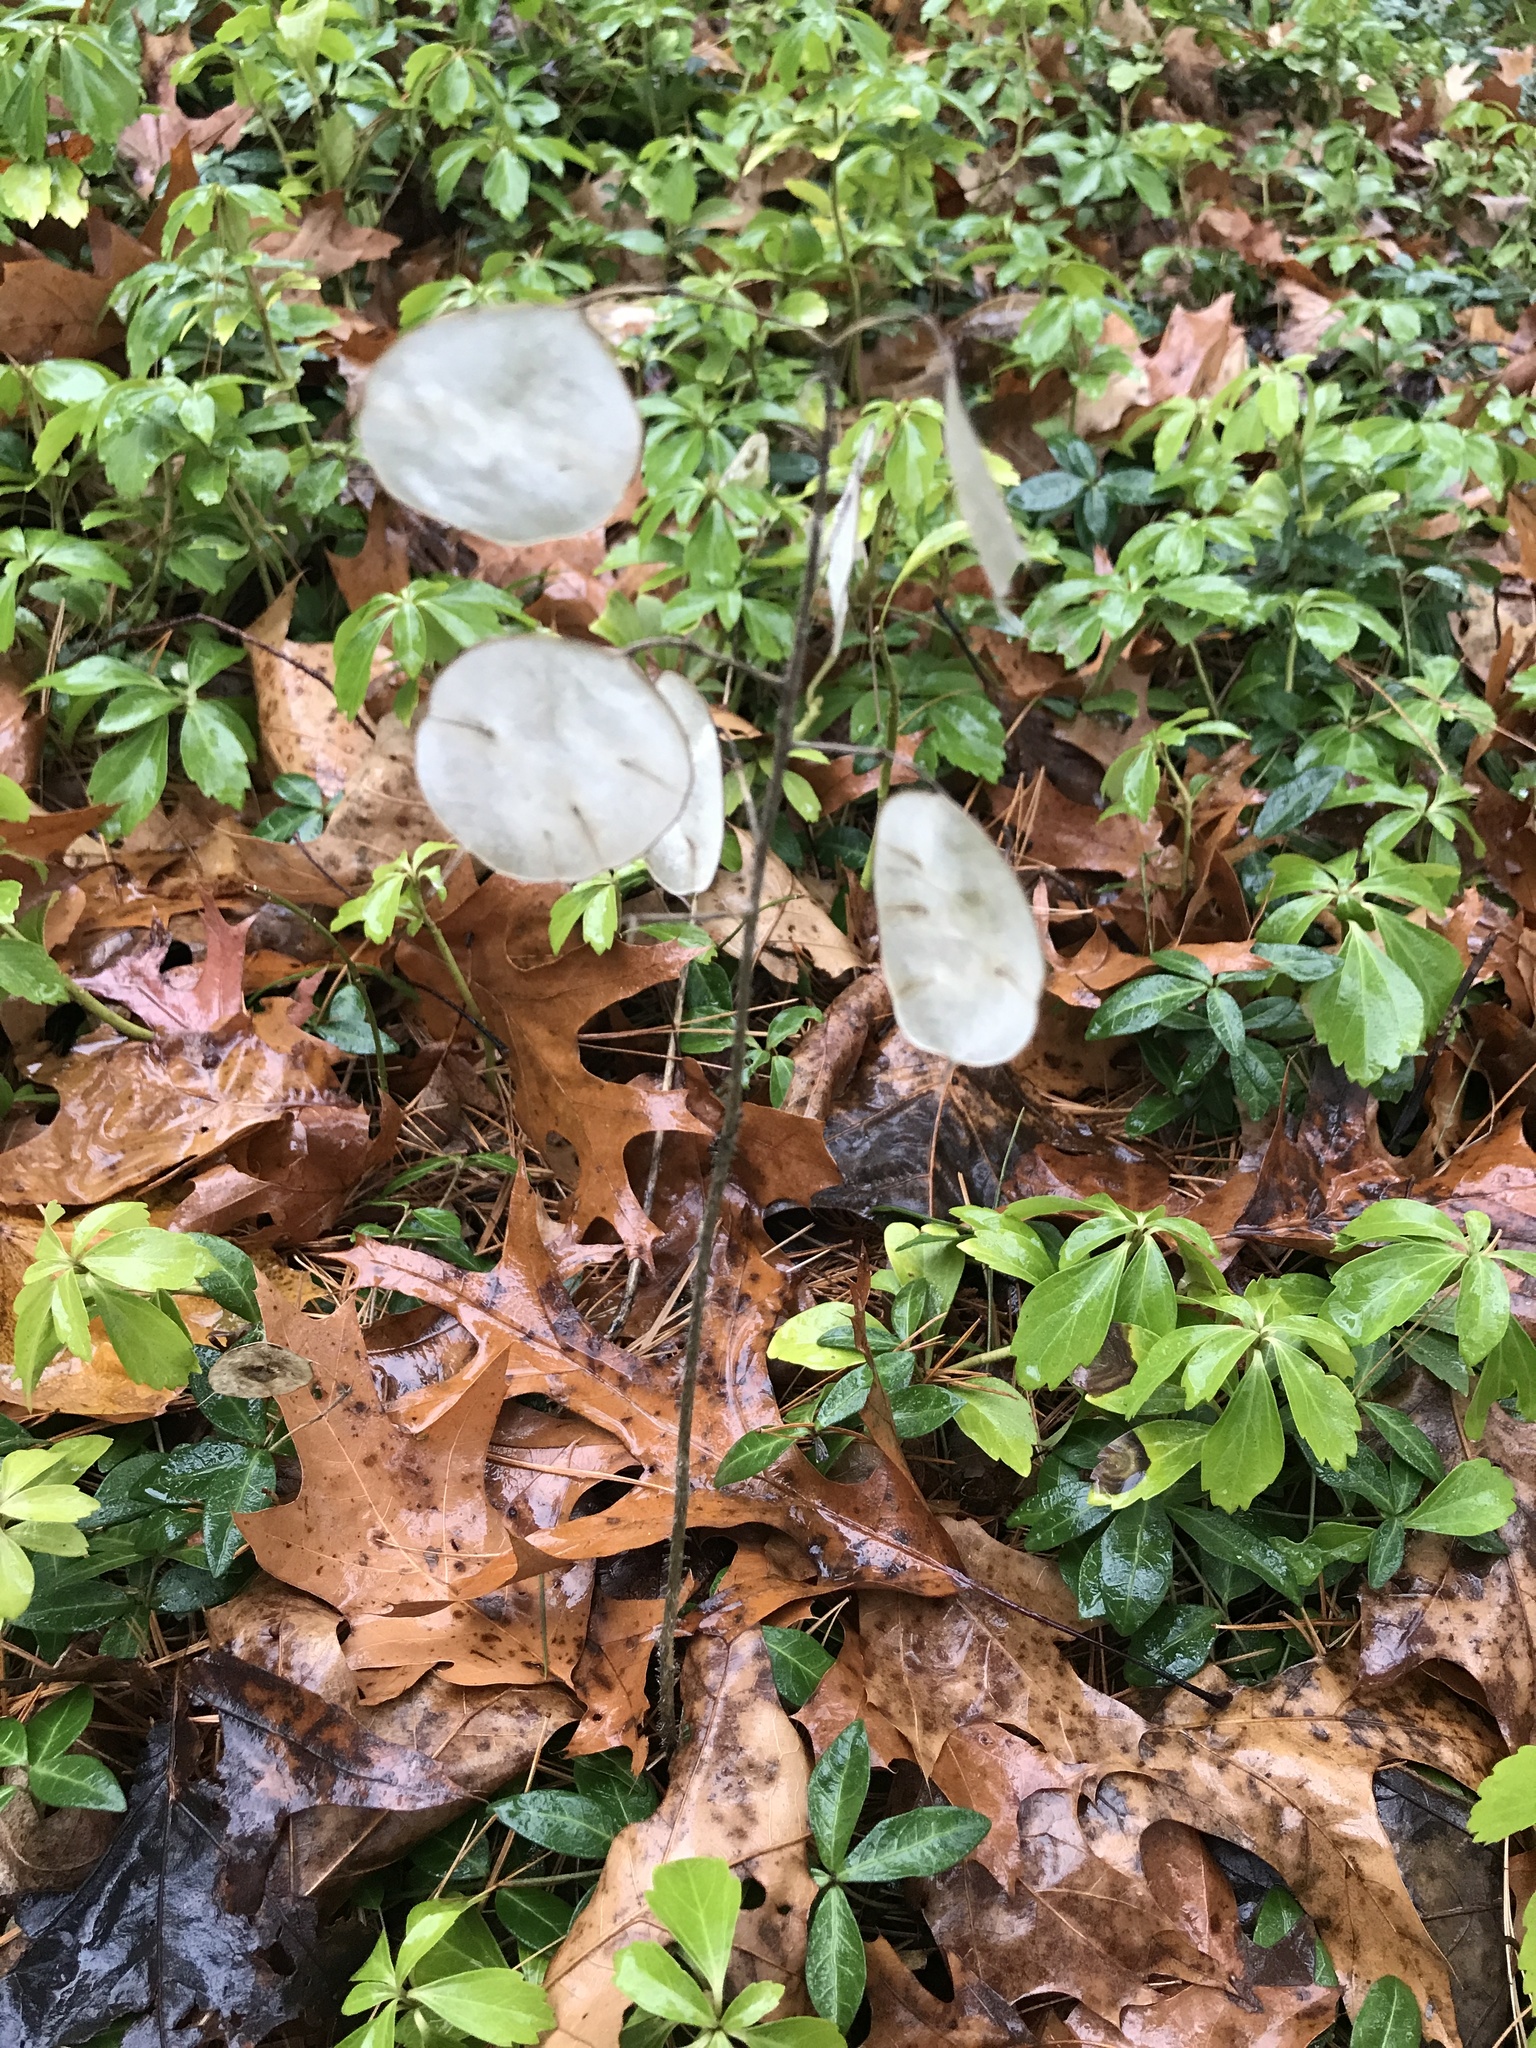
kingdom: Plantae
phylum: Tracheophyta
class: Magnoliopsida
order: Brassicales
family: Brassicaceae
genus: Lunaria
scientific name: Lunaria annua
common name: Honesty
